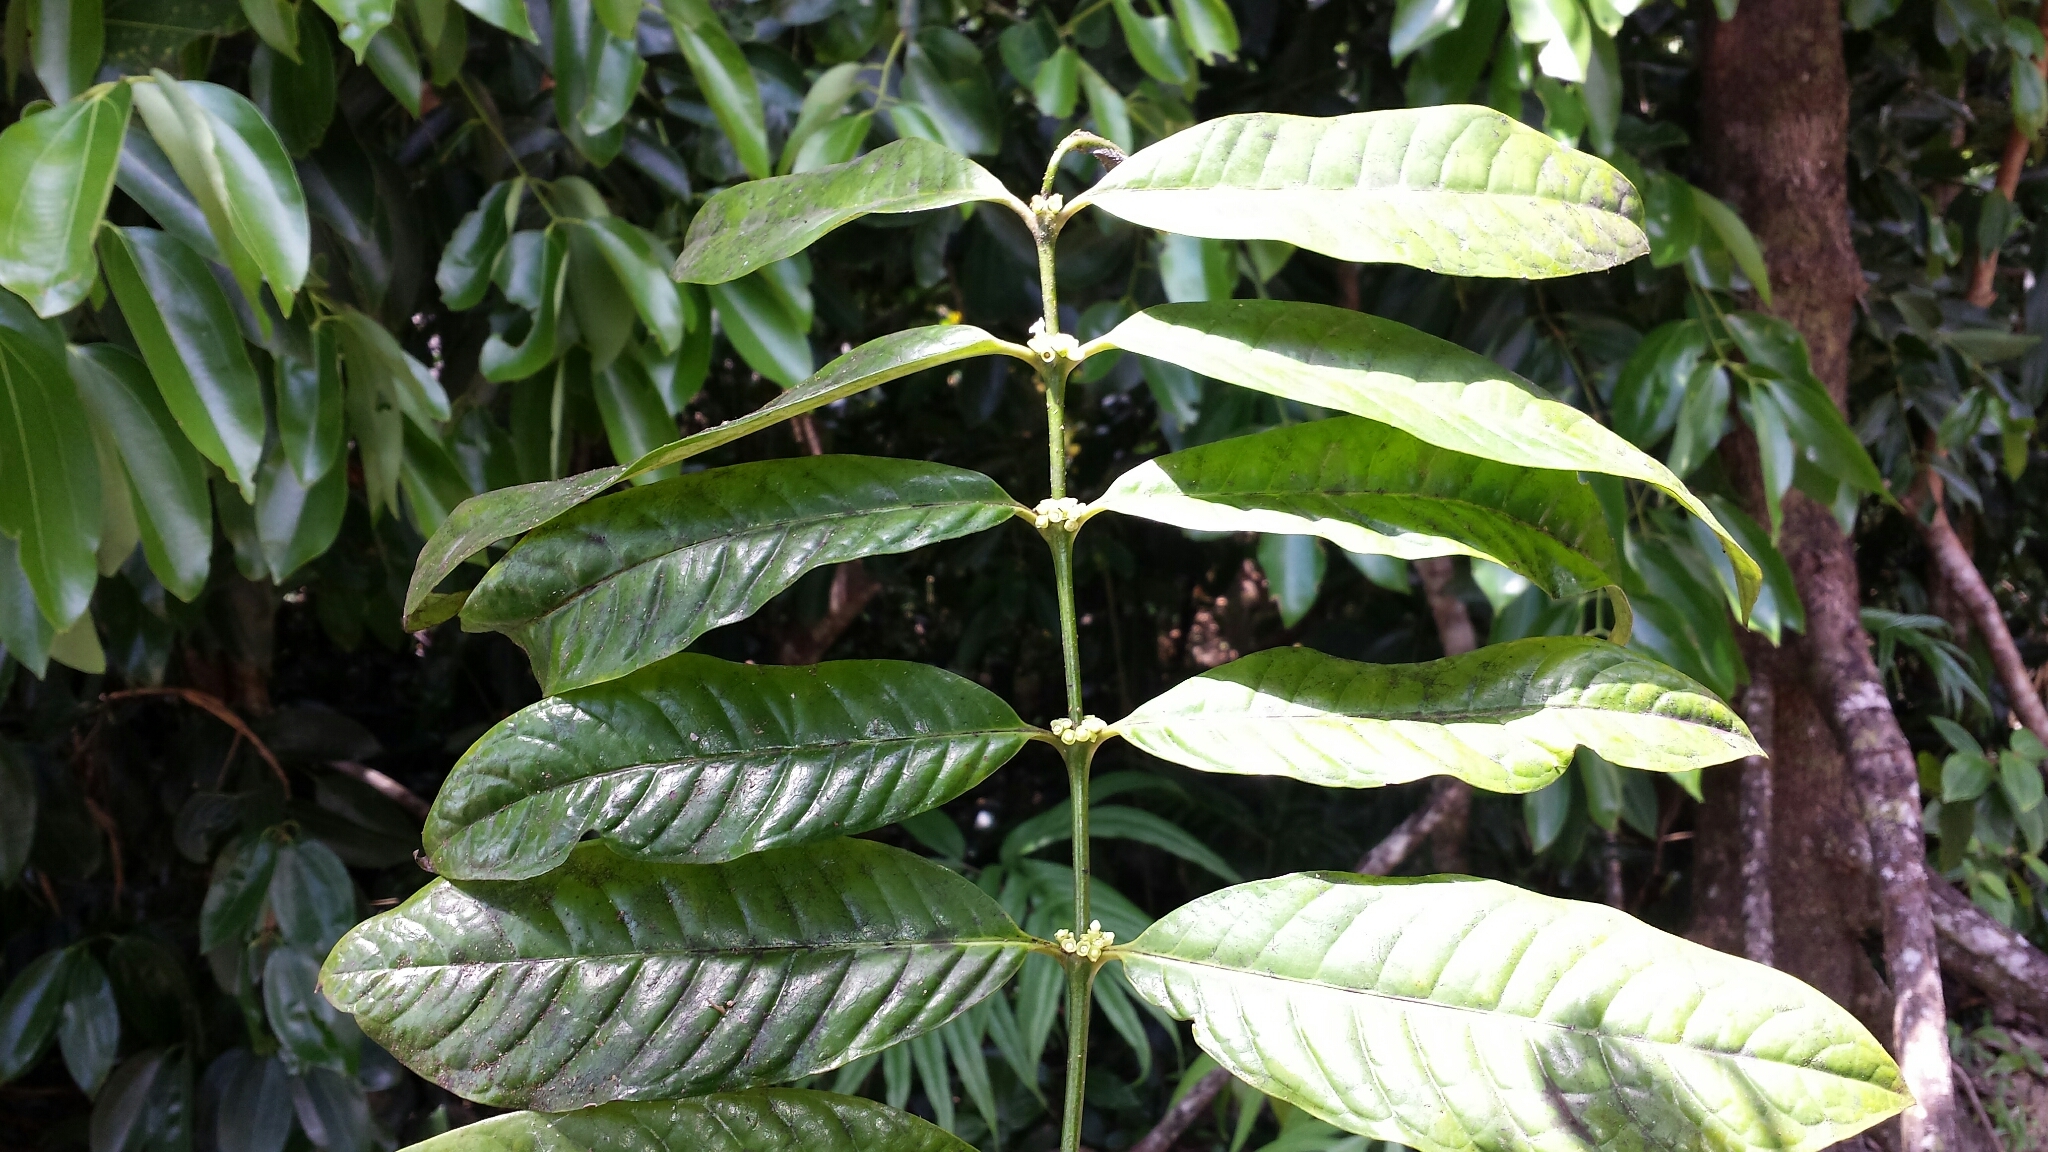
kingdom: Plantae
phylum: Tracheophyta
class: Magnoliopsida
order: Gentianales
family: Rubiaceae
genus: Saldinia
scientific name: Saldinia longistipulata
